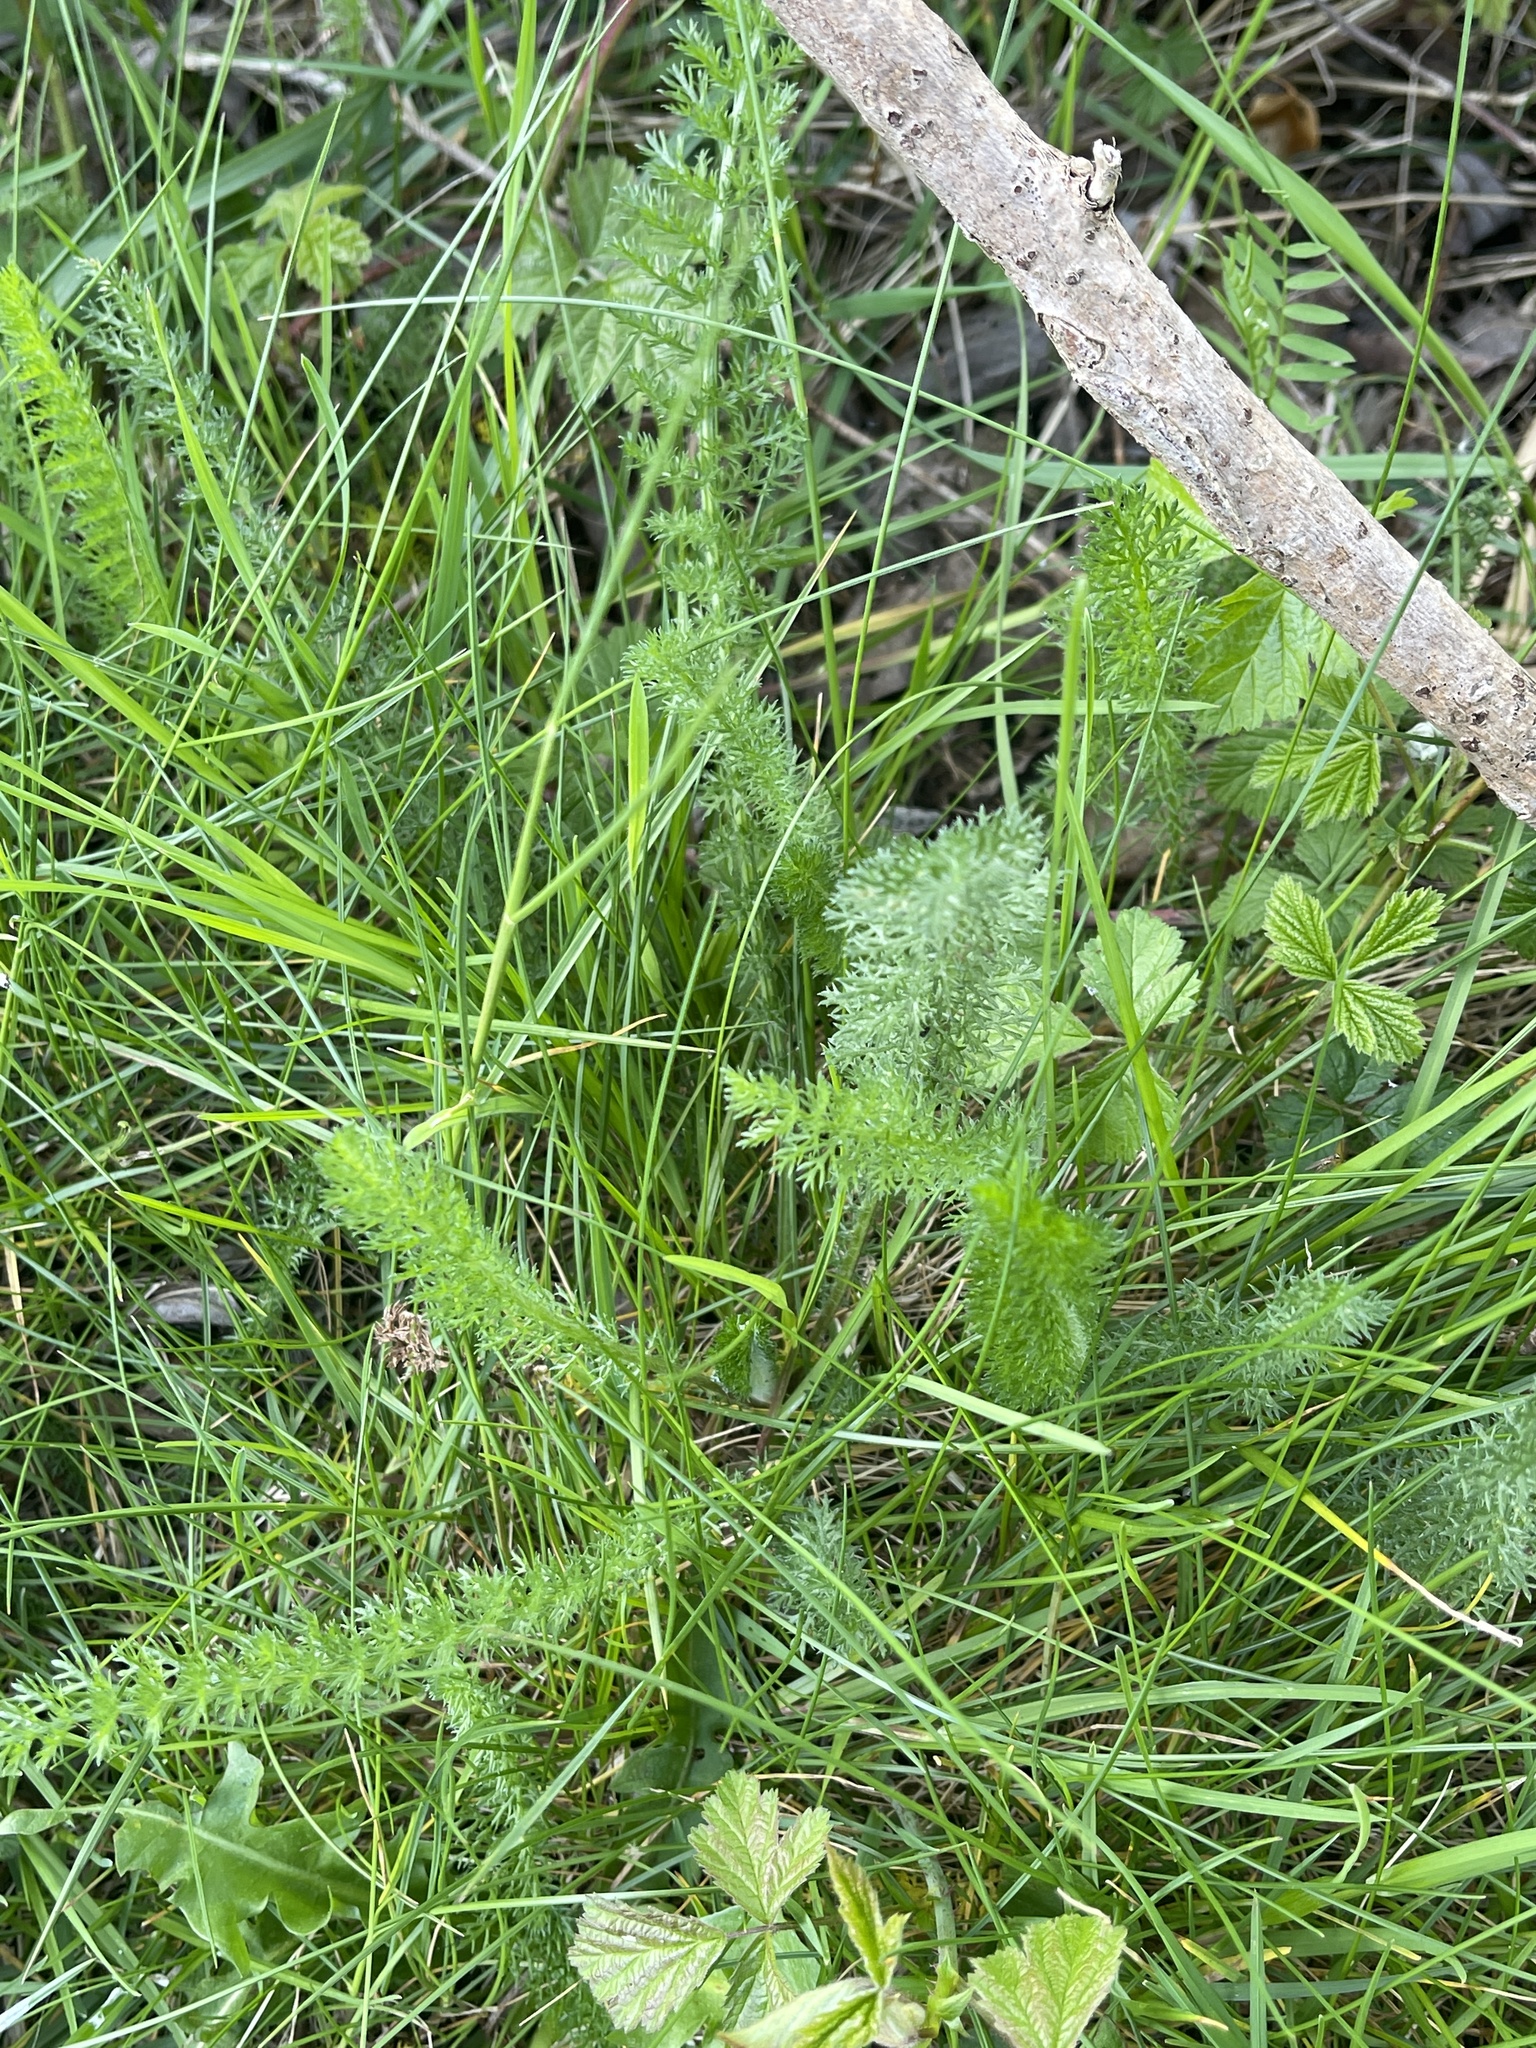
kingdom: Plantae
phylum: Tracheophyta
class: Magnoliopsida
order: Asterales
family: Asteraceae
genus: Achillea
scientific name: Achillea millefolium
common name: Yarrow
